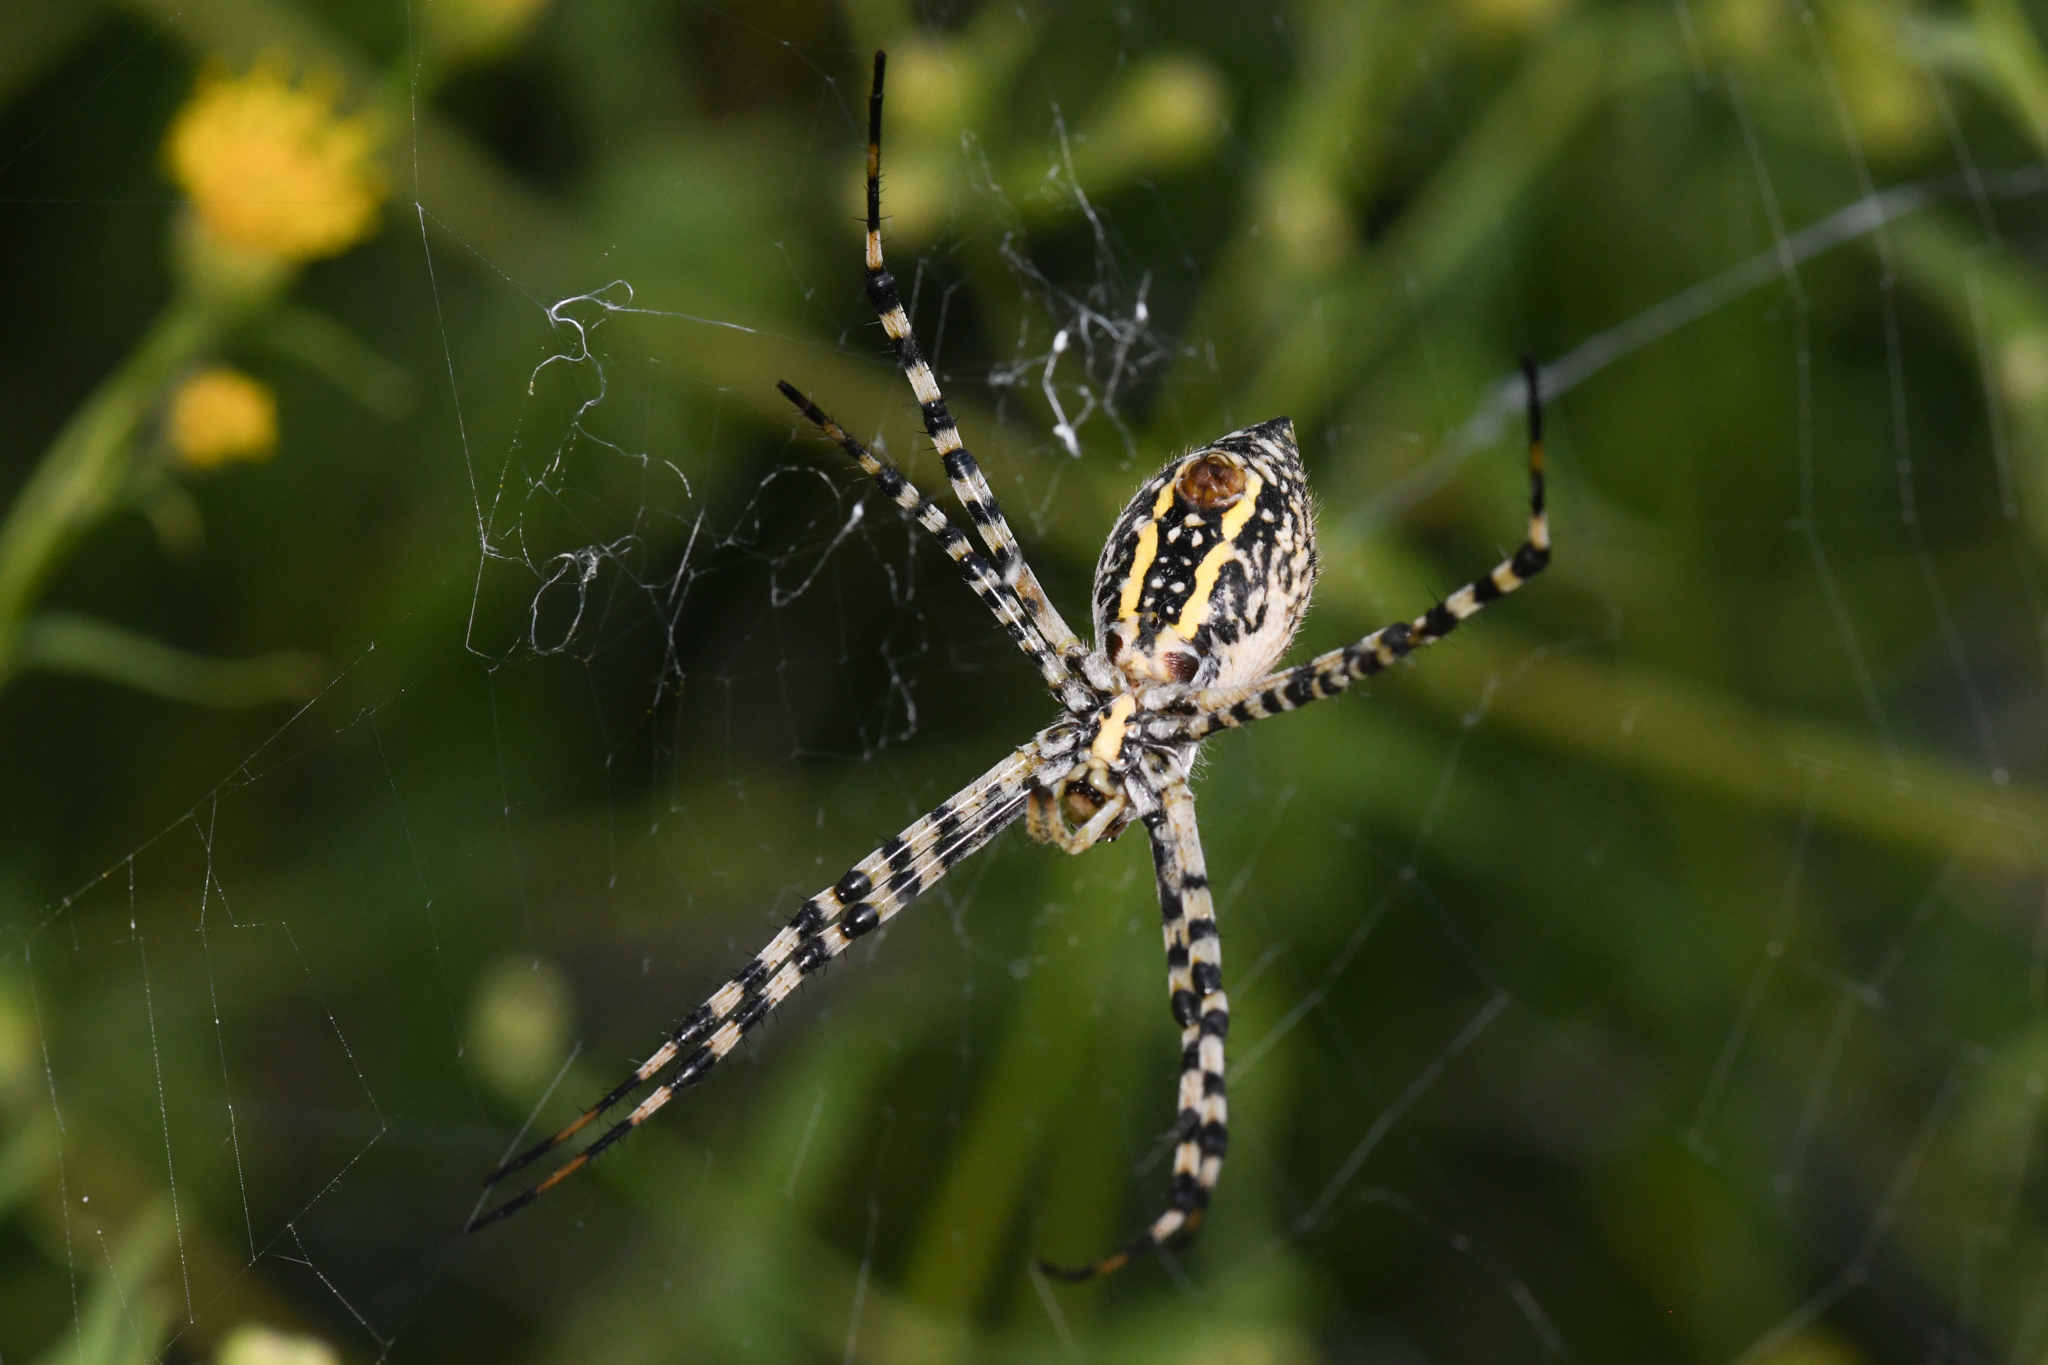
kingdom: Animalia
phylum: Arthropoda
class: Arachnida
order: Araneae
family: Araneidae
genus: Argiope
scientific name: Argiope trifasciata
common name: Banded garden spider
